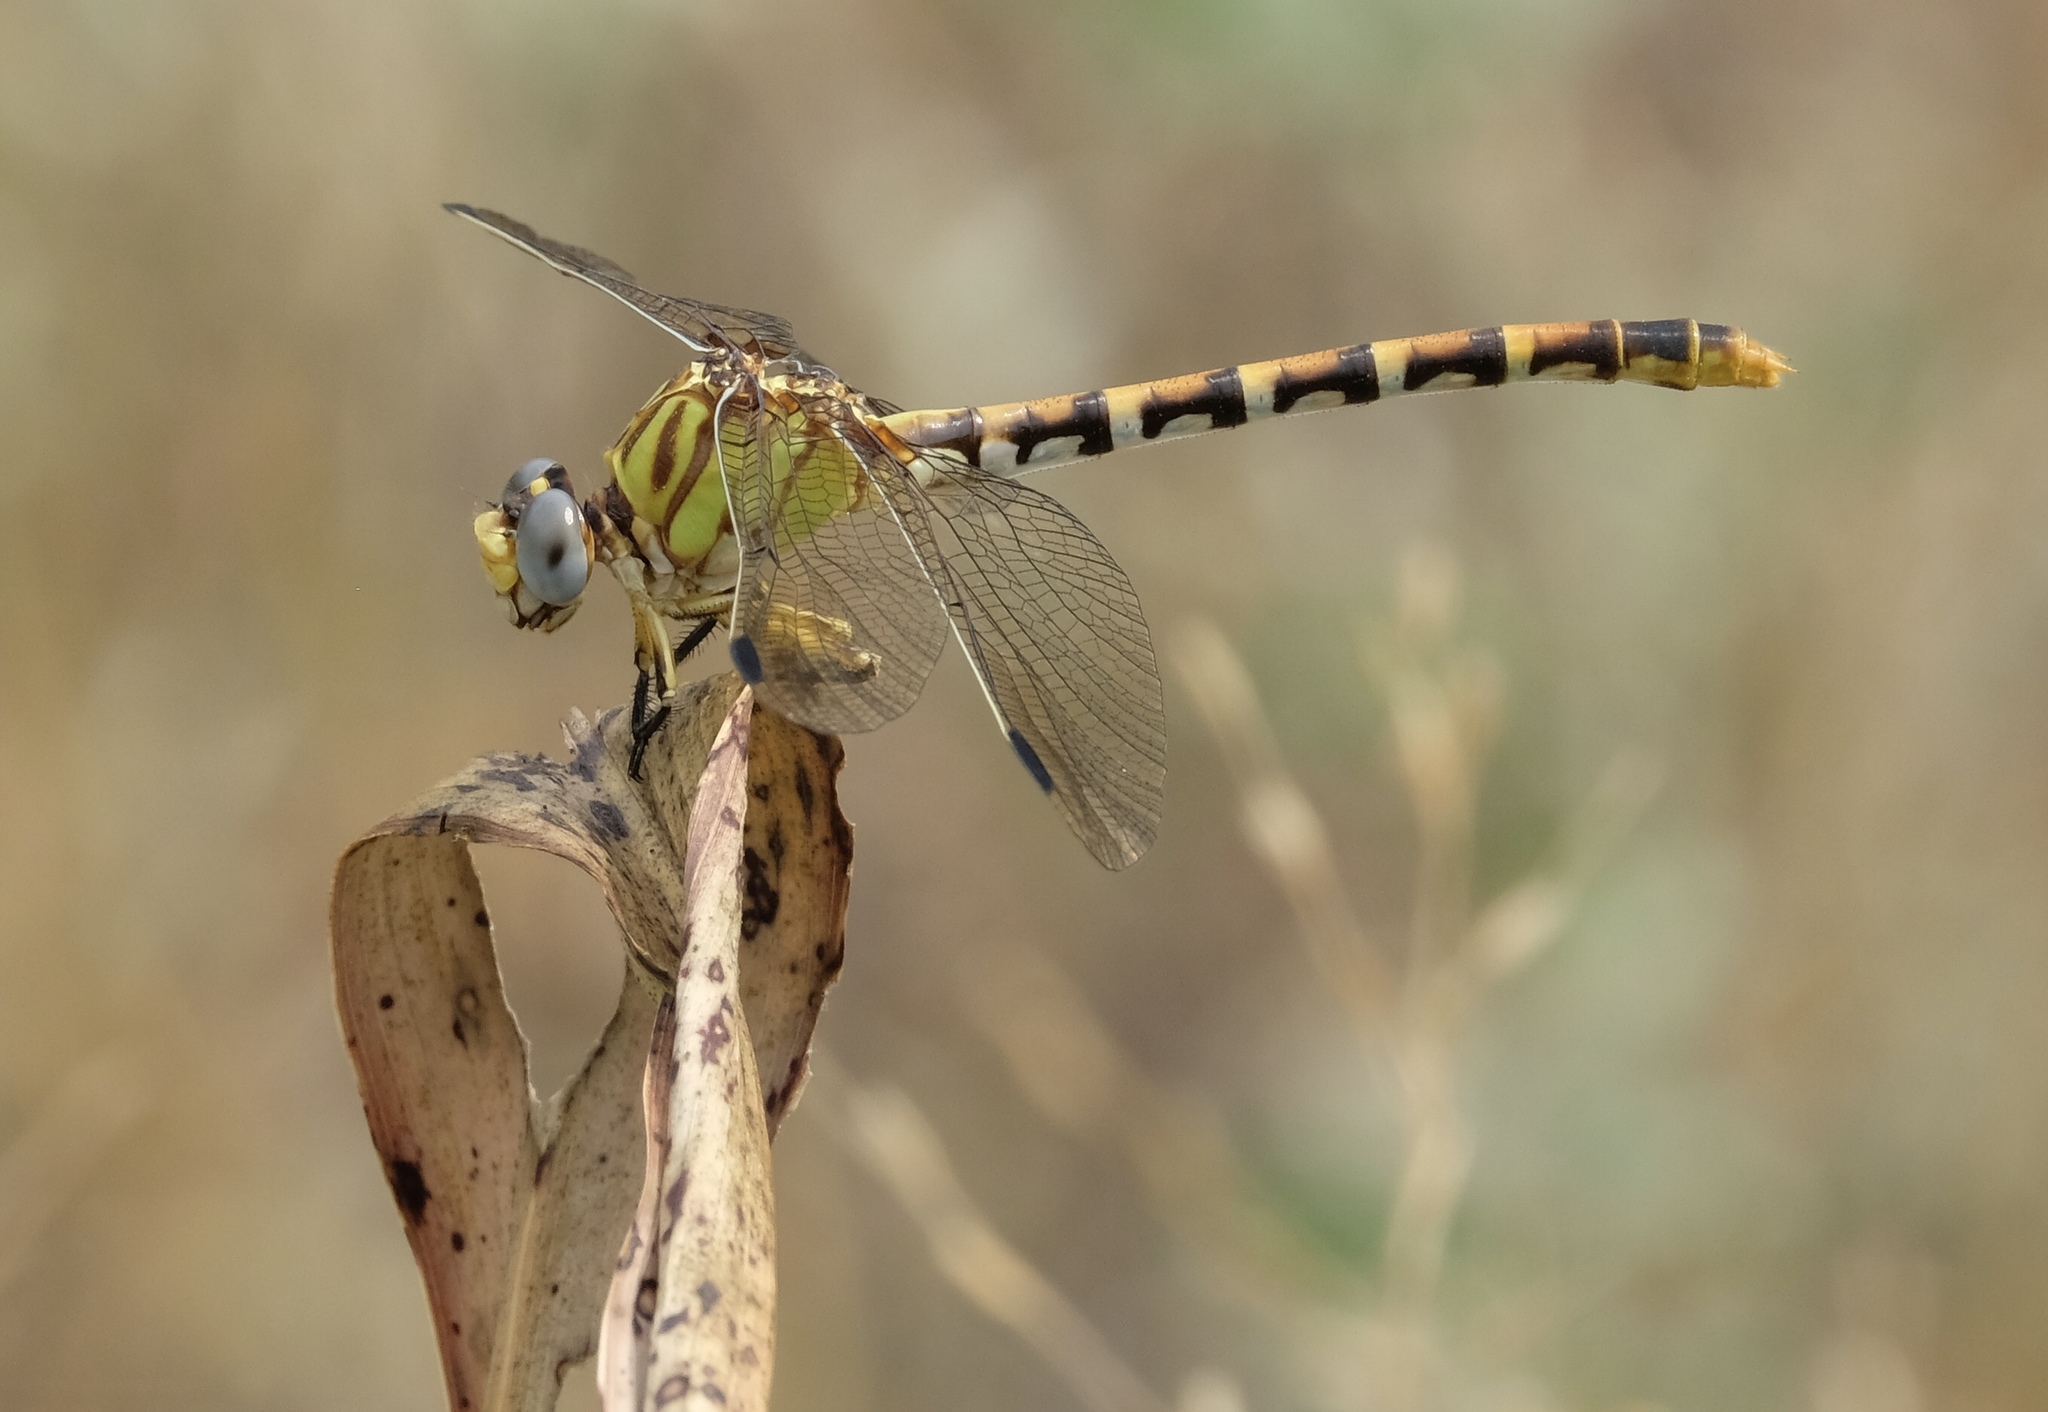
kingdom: Animalia
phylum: Arthropoda
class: Insecta
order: Odonata
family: Gomphidae
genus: Erpetogomphus
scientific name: Erpetogomphus designatus
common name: Eastern ringtail
